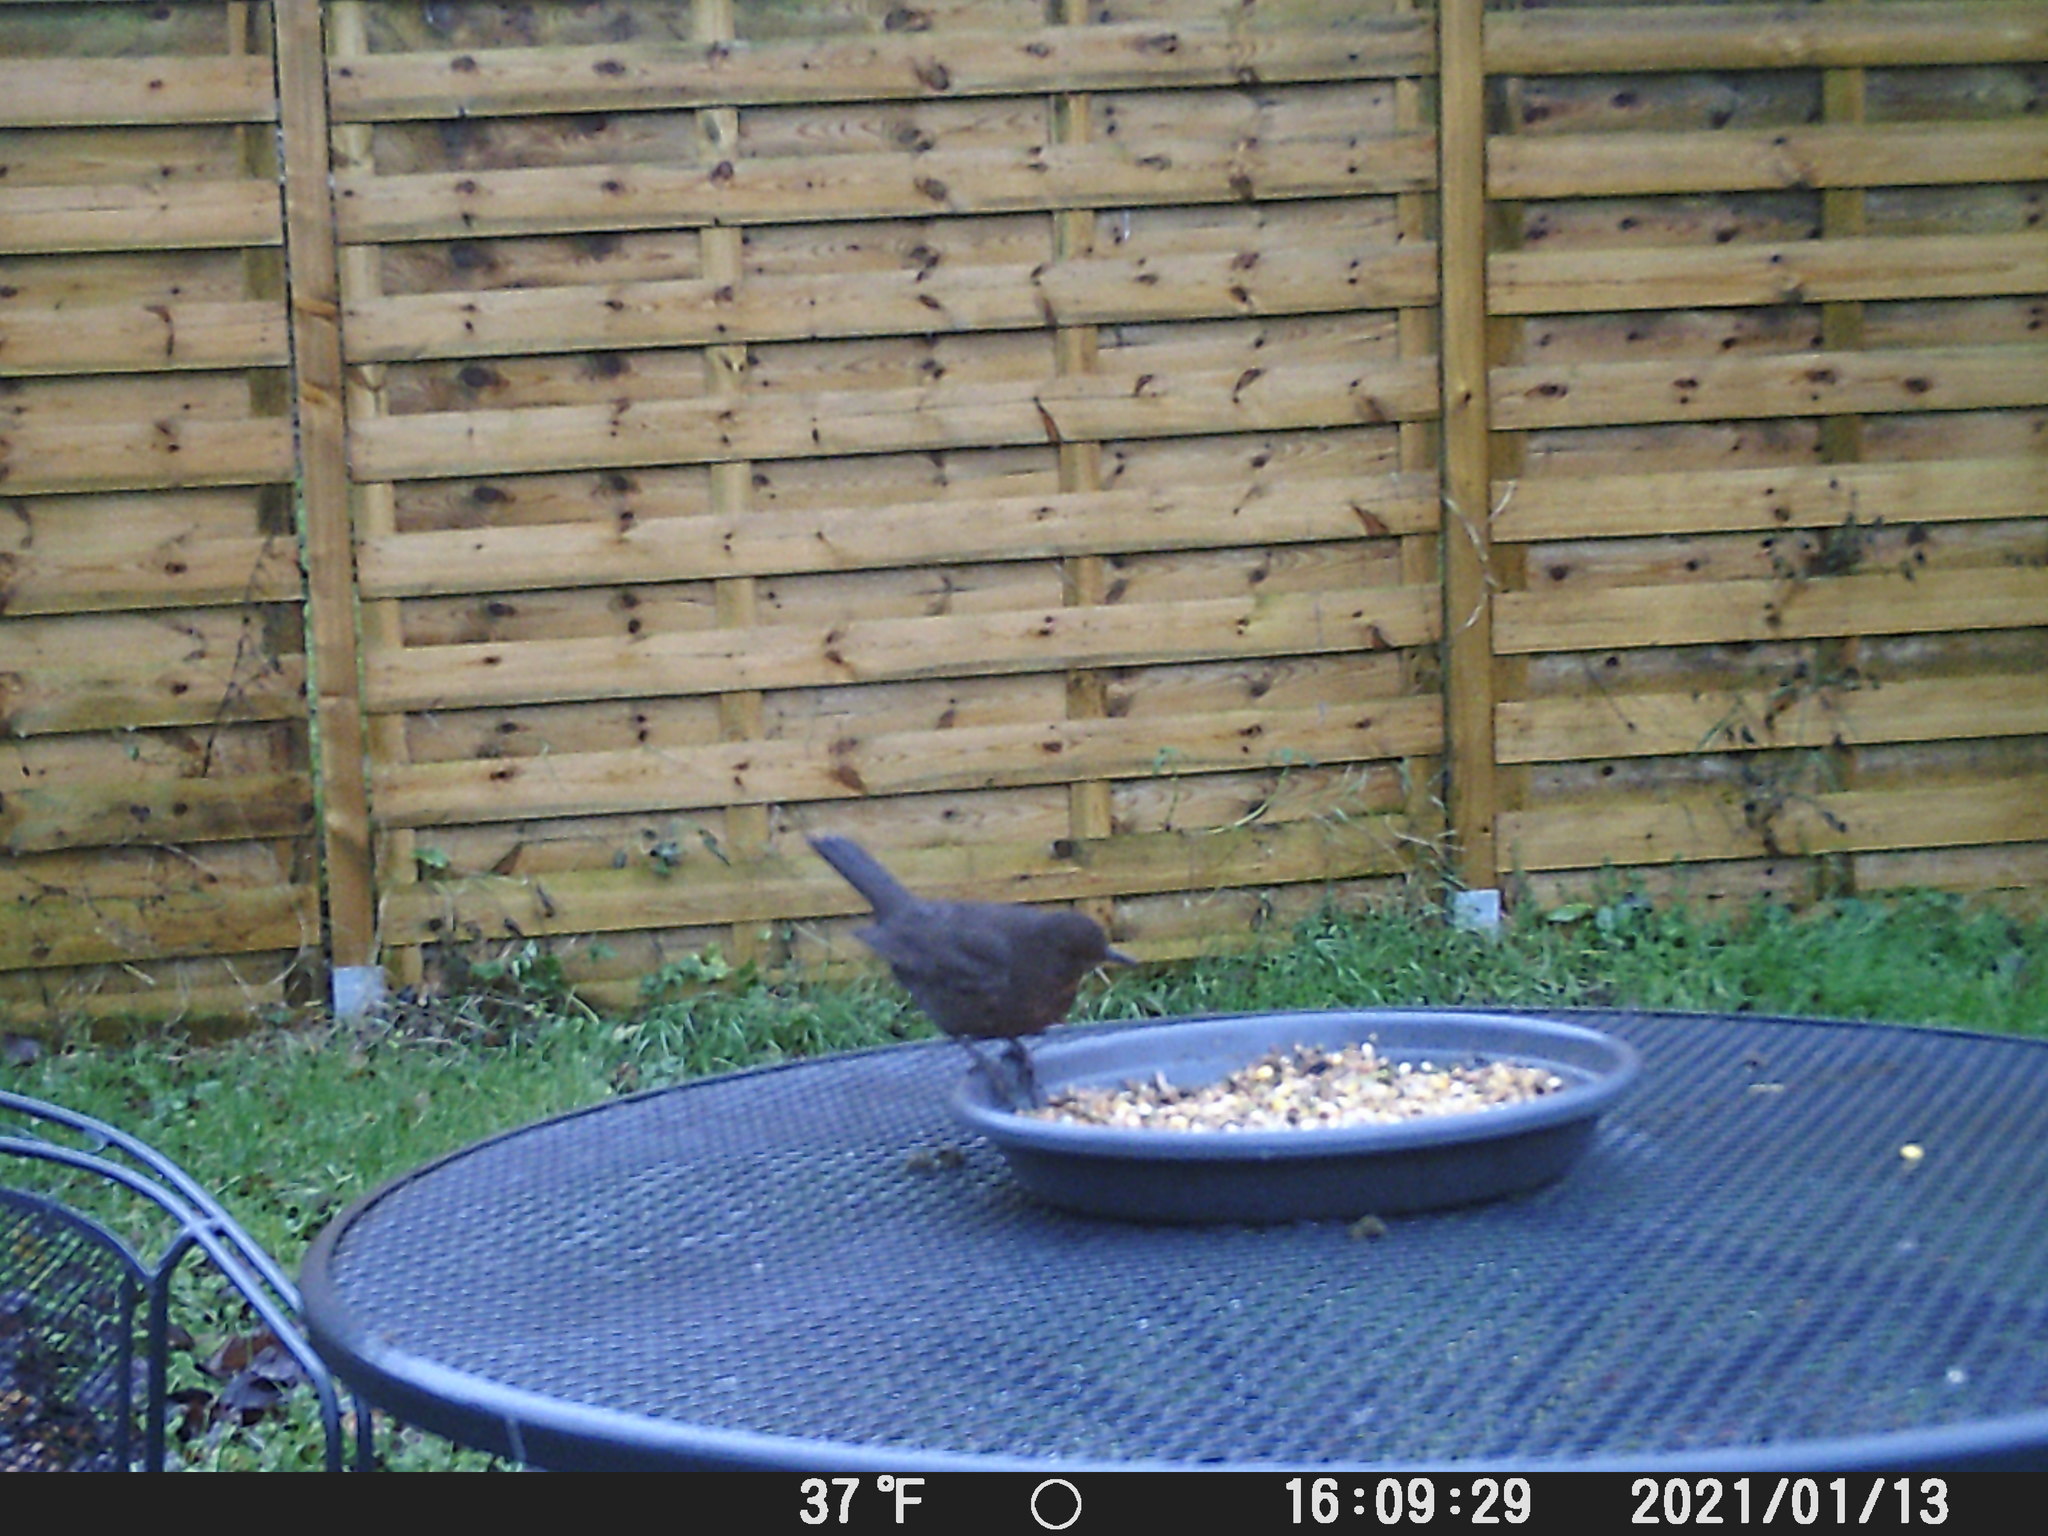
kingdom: Animalia
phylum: Chordata
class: Aves
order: Passeriformes
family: Turdidae
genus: Turdus
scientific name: Turdus merula
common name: Common blackbird
